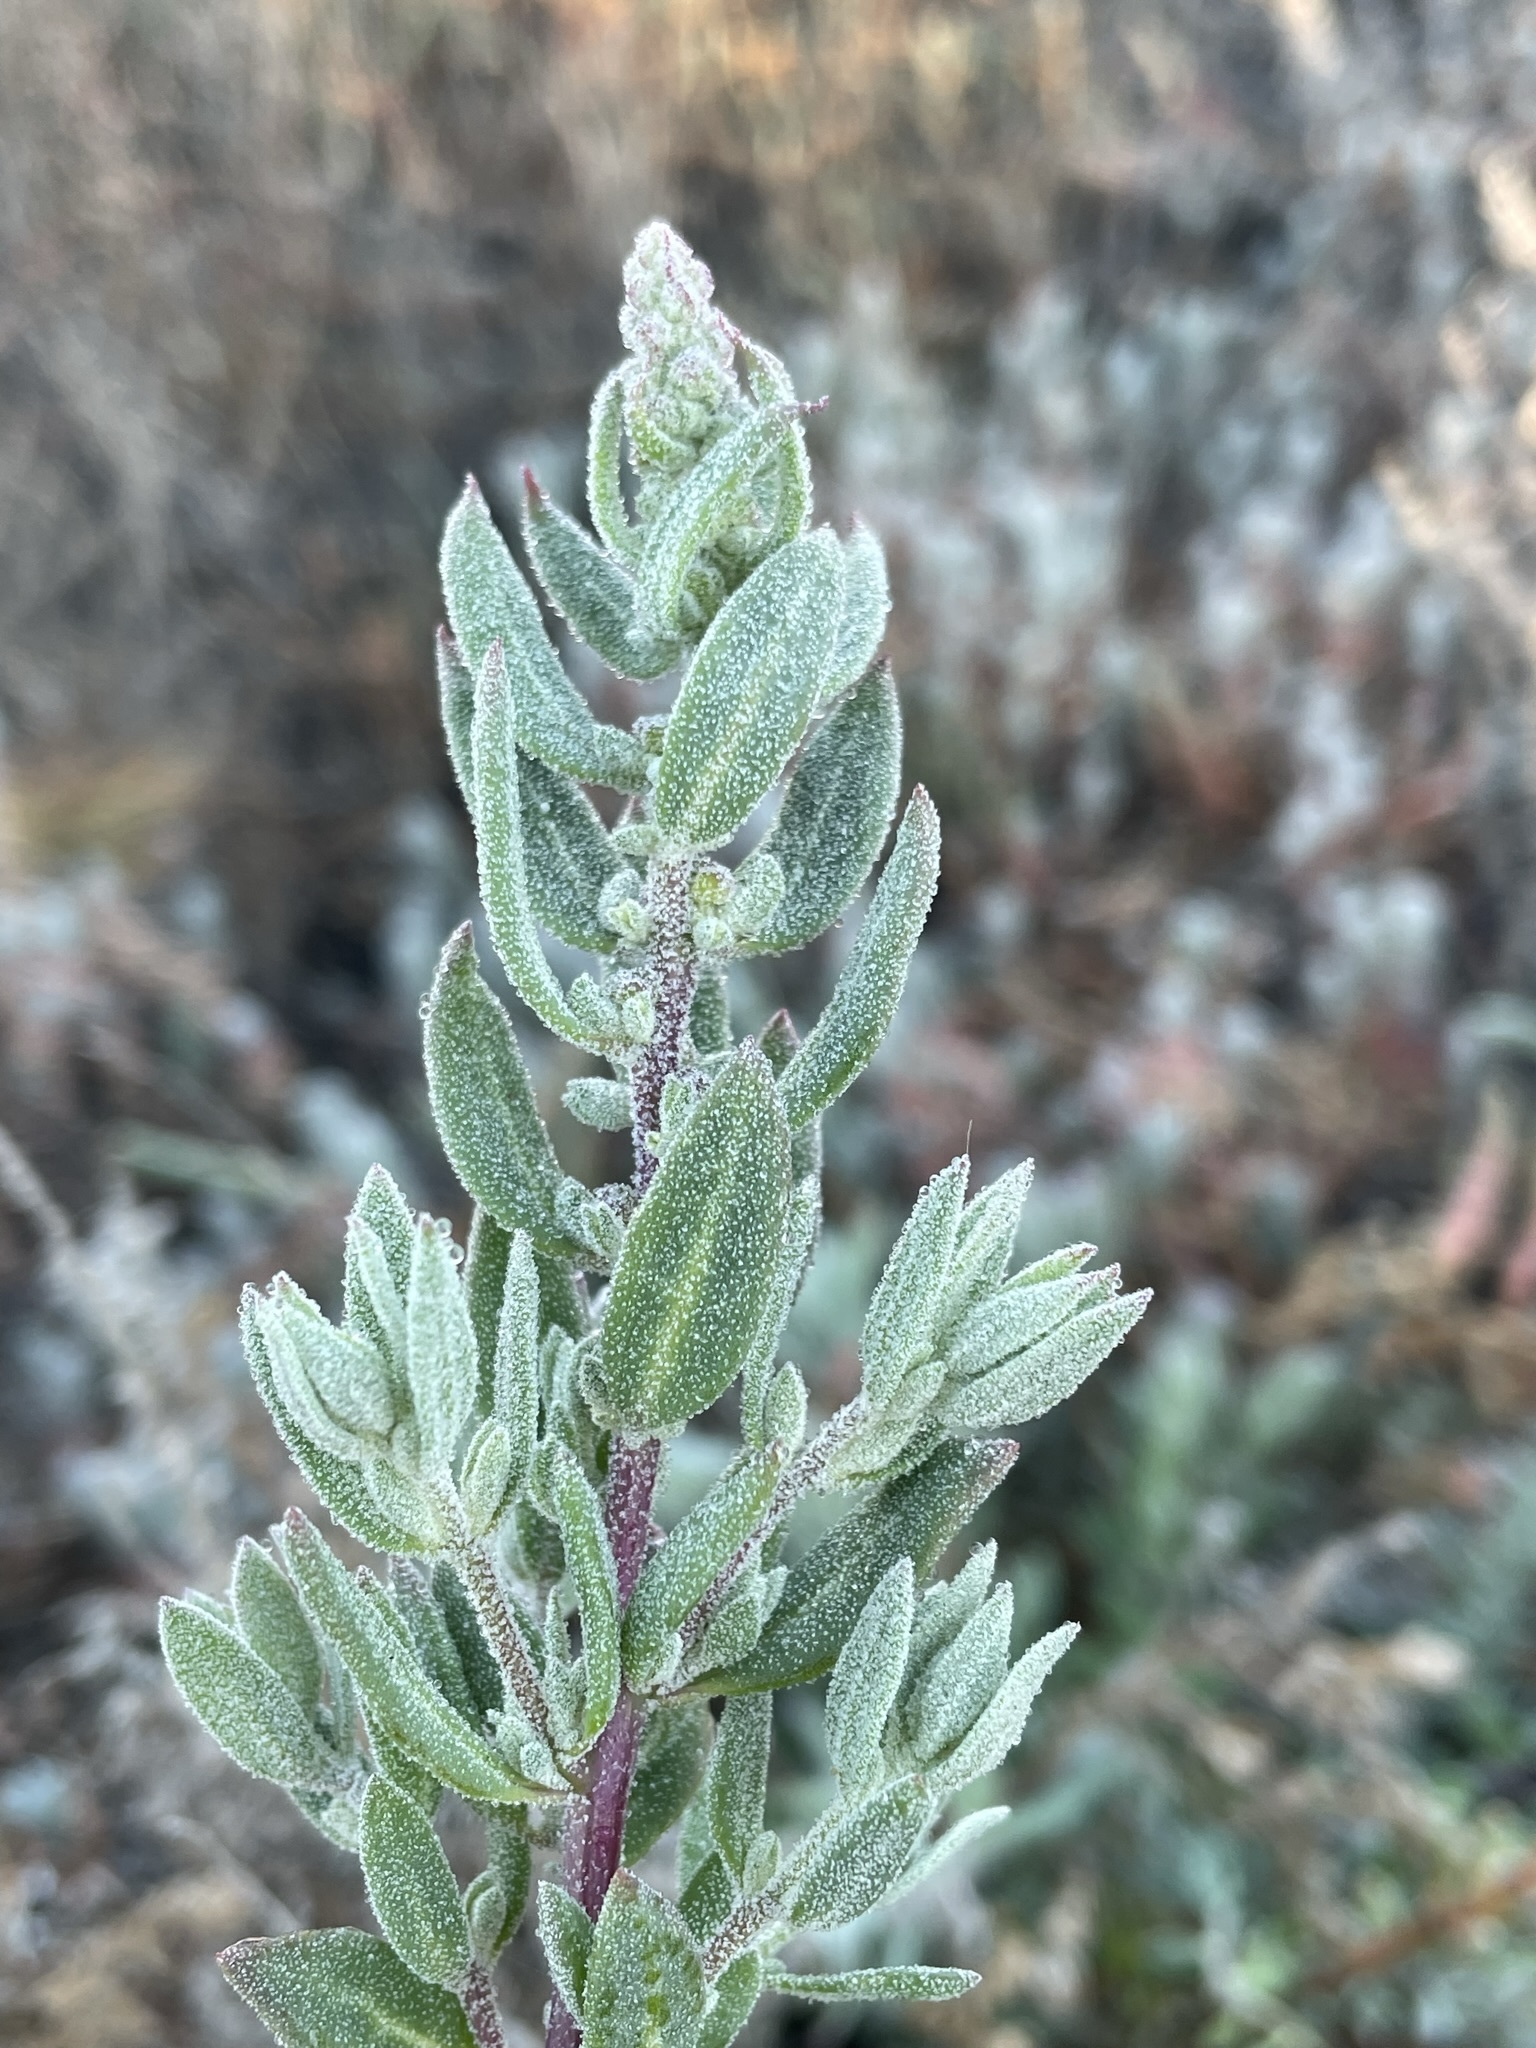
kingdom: Plantae
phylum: Tracheophyta
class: Magnoliopsida
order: Caryophyllales
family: Amaranthaceae
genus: Extriplex
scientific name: Extriplex californica
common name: California saltbush
